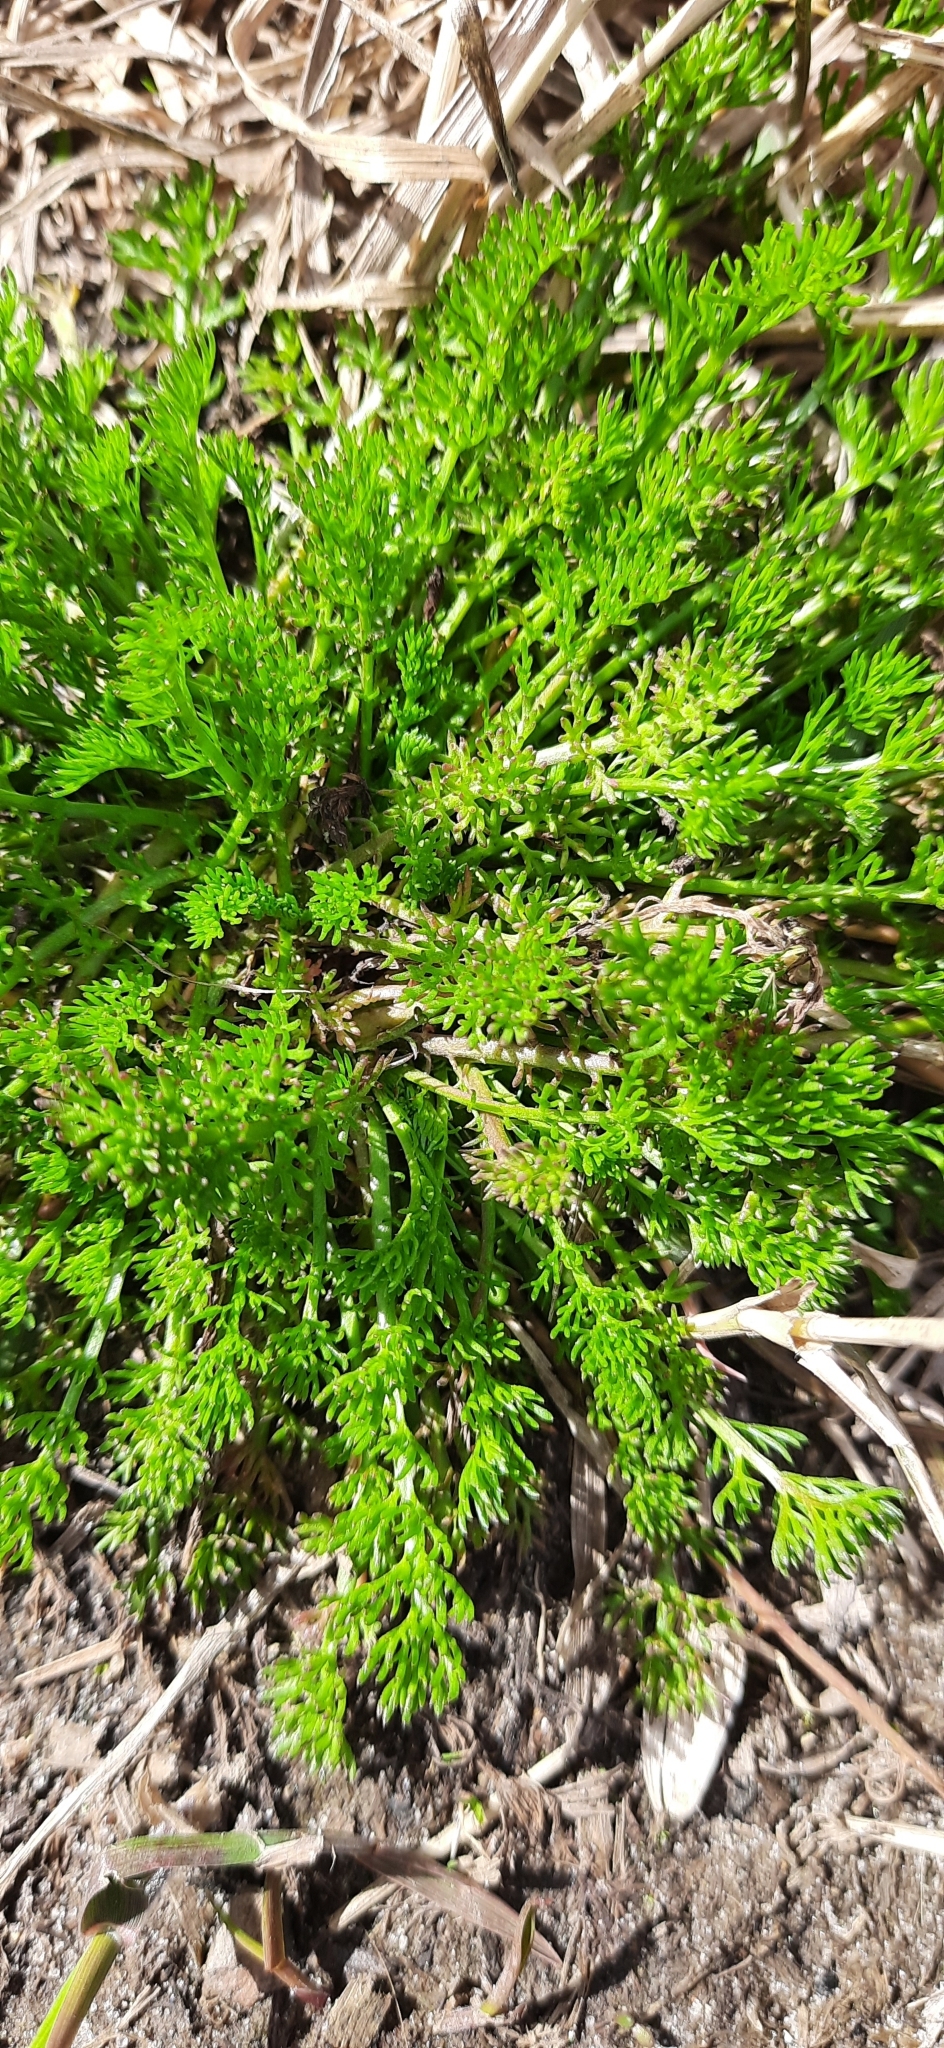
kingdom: Plantae
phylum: Tracheophyta
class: Magnoliopsida
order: Asterales
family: Asteraceae
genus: Tripleurospermum
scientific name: Tripleurospermum inodorum
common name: Scentless mayweed
